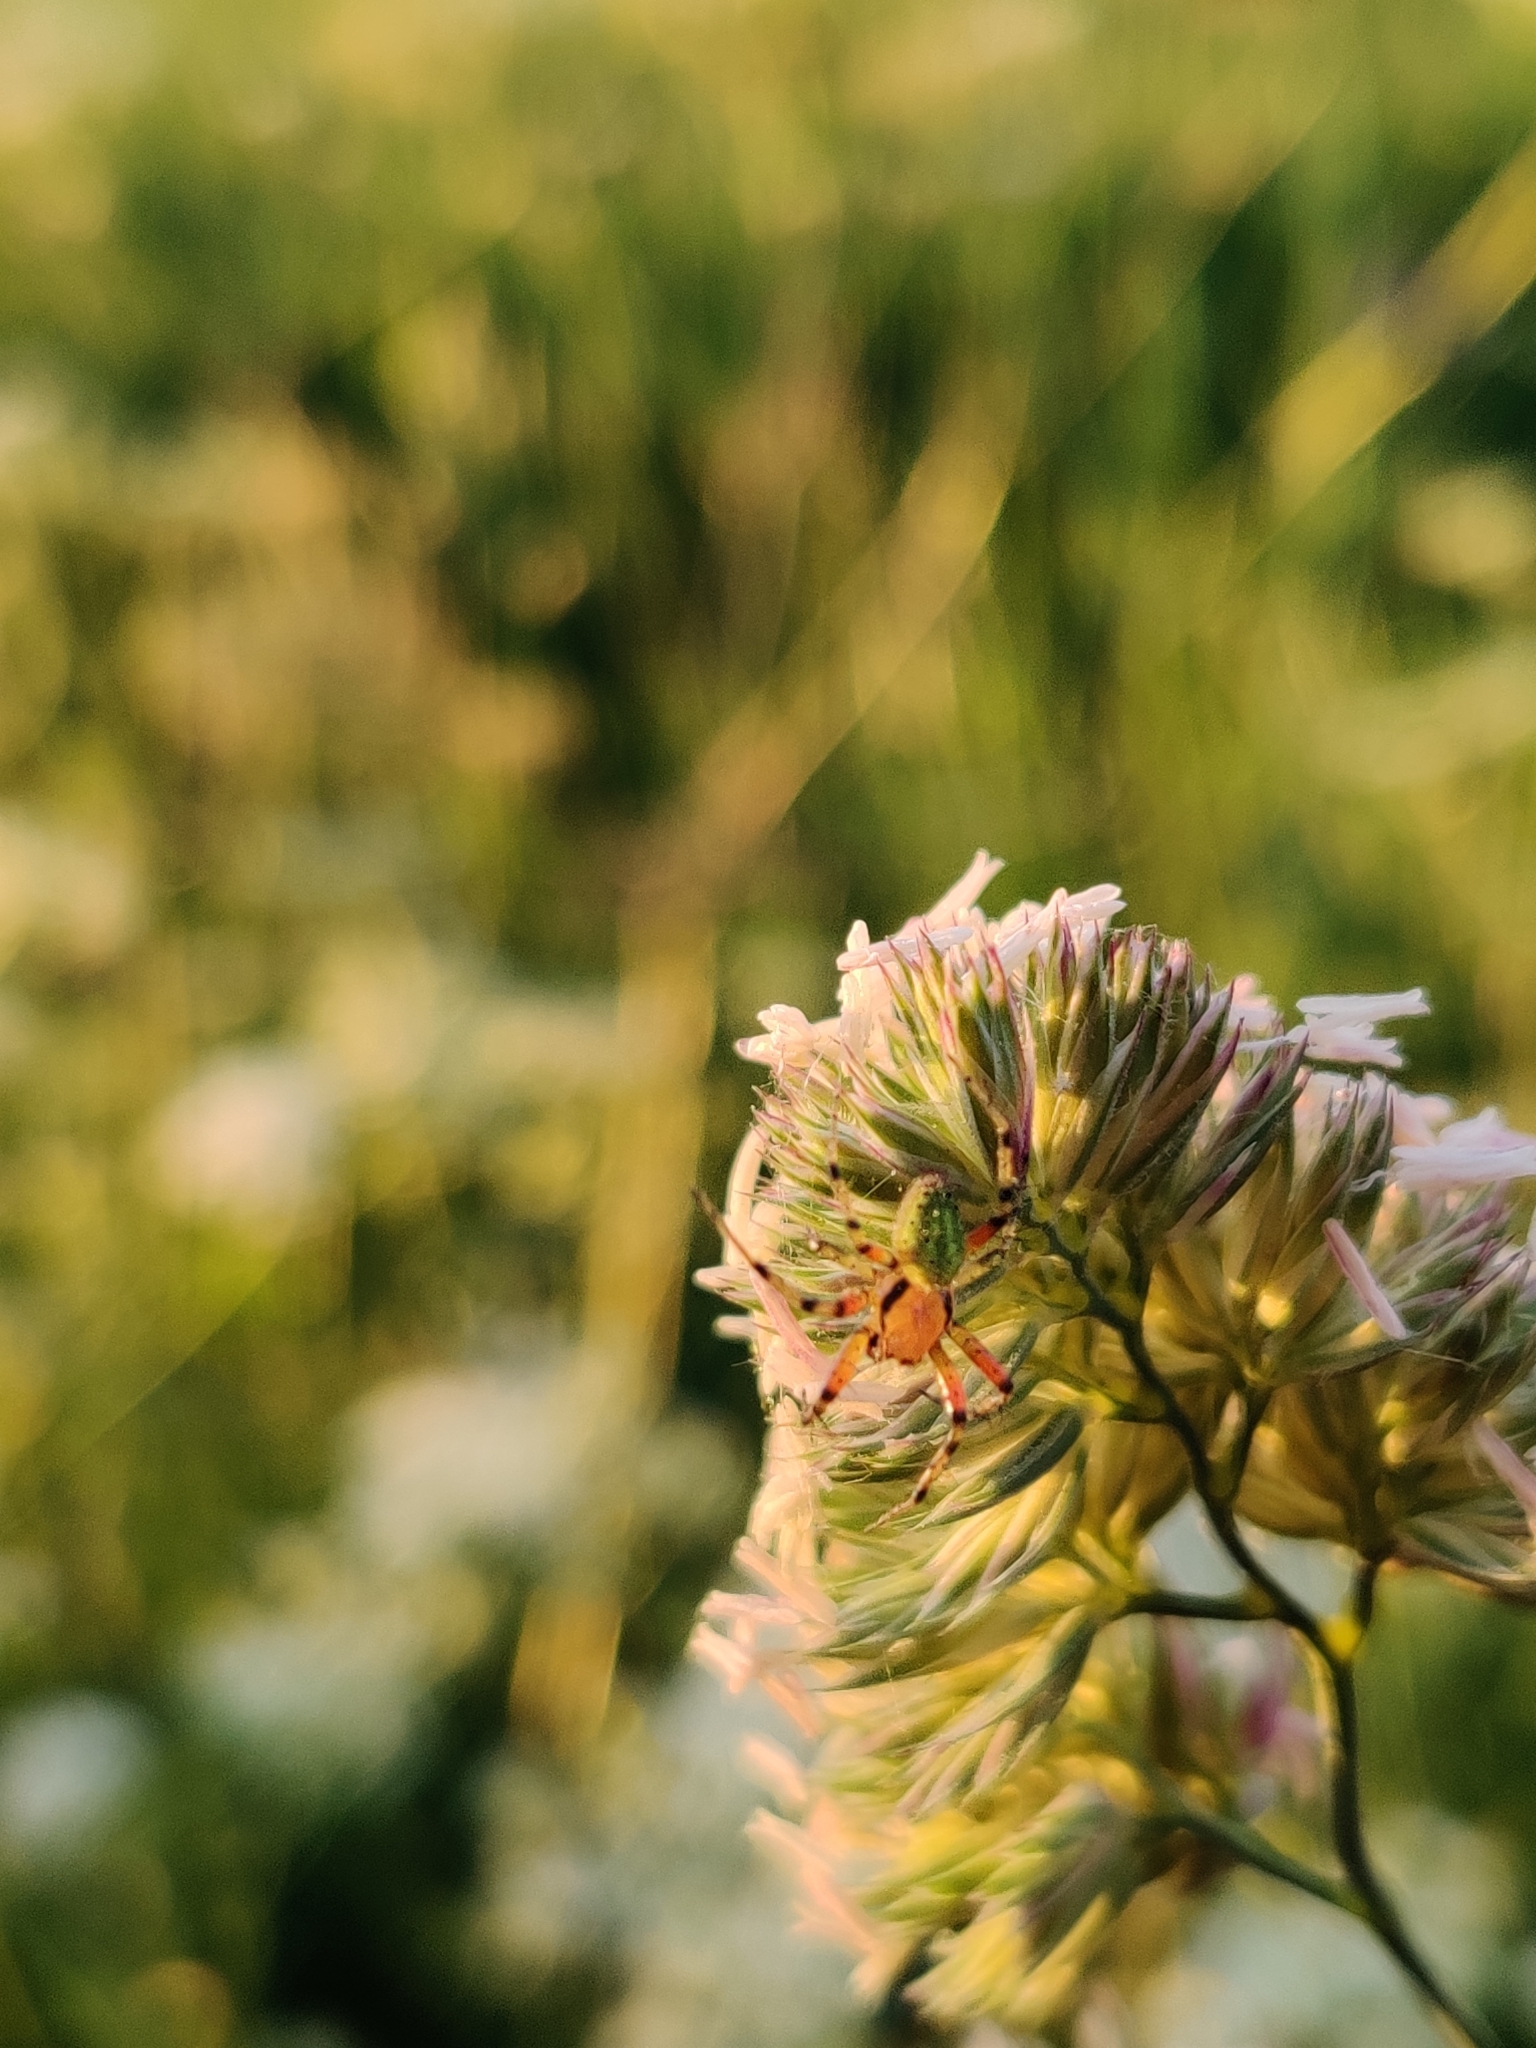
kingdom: Animalia
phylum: Arthropoda
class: Arachnida
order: Araneae
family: Araneidae
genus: Araniella
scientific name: Araniella
